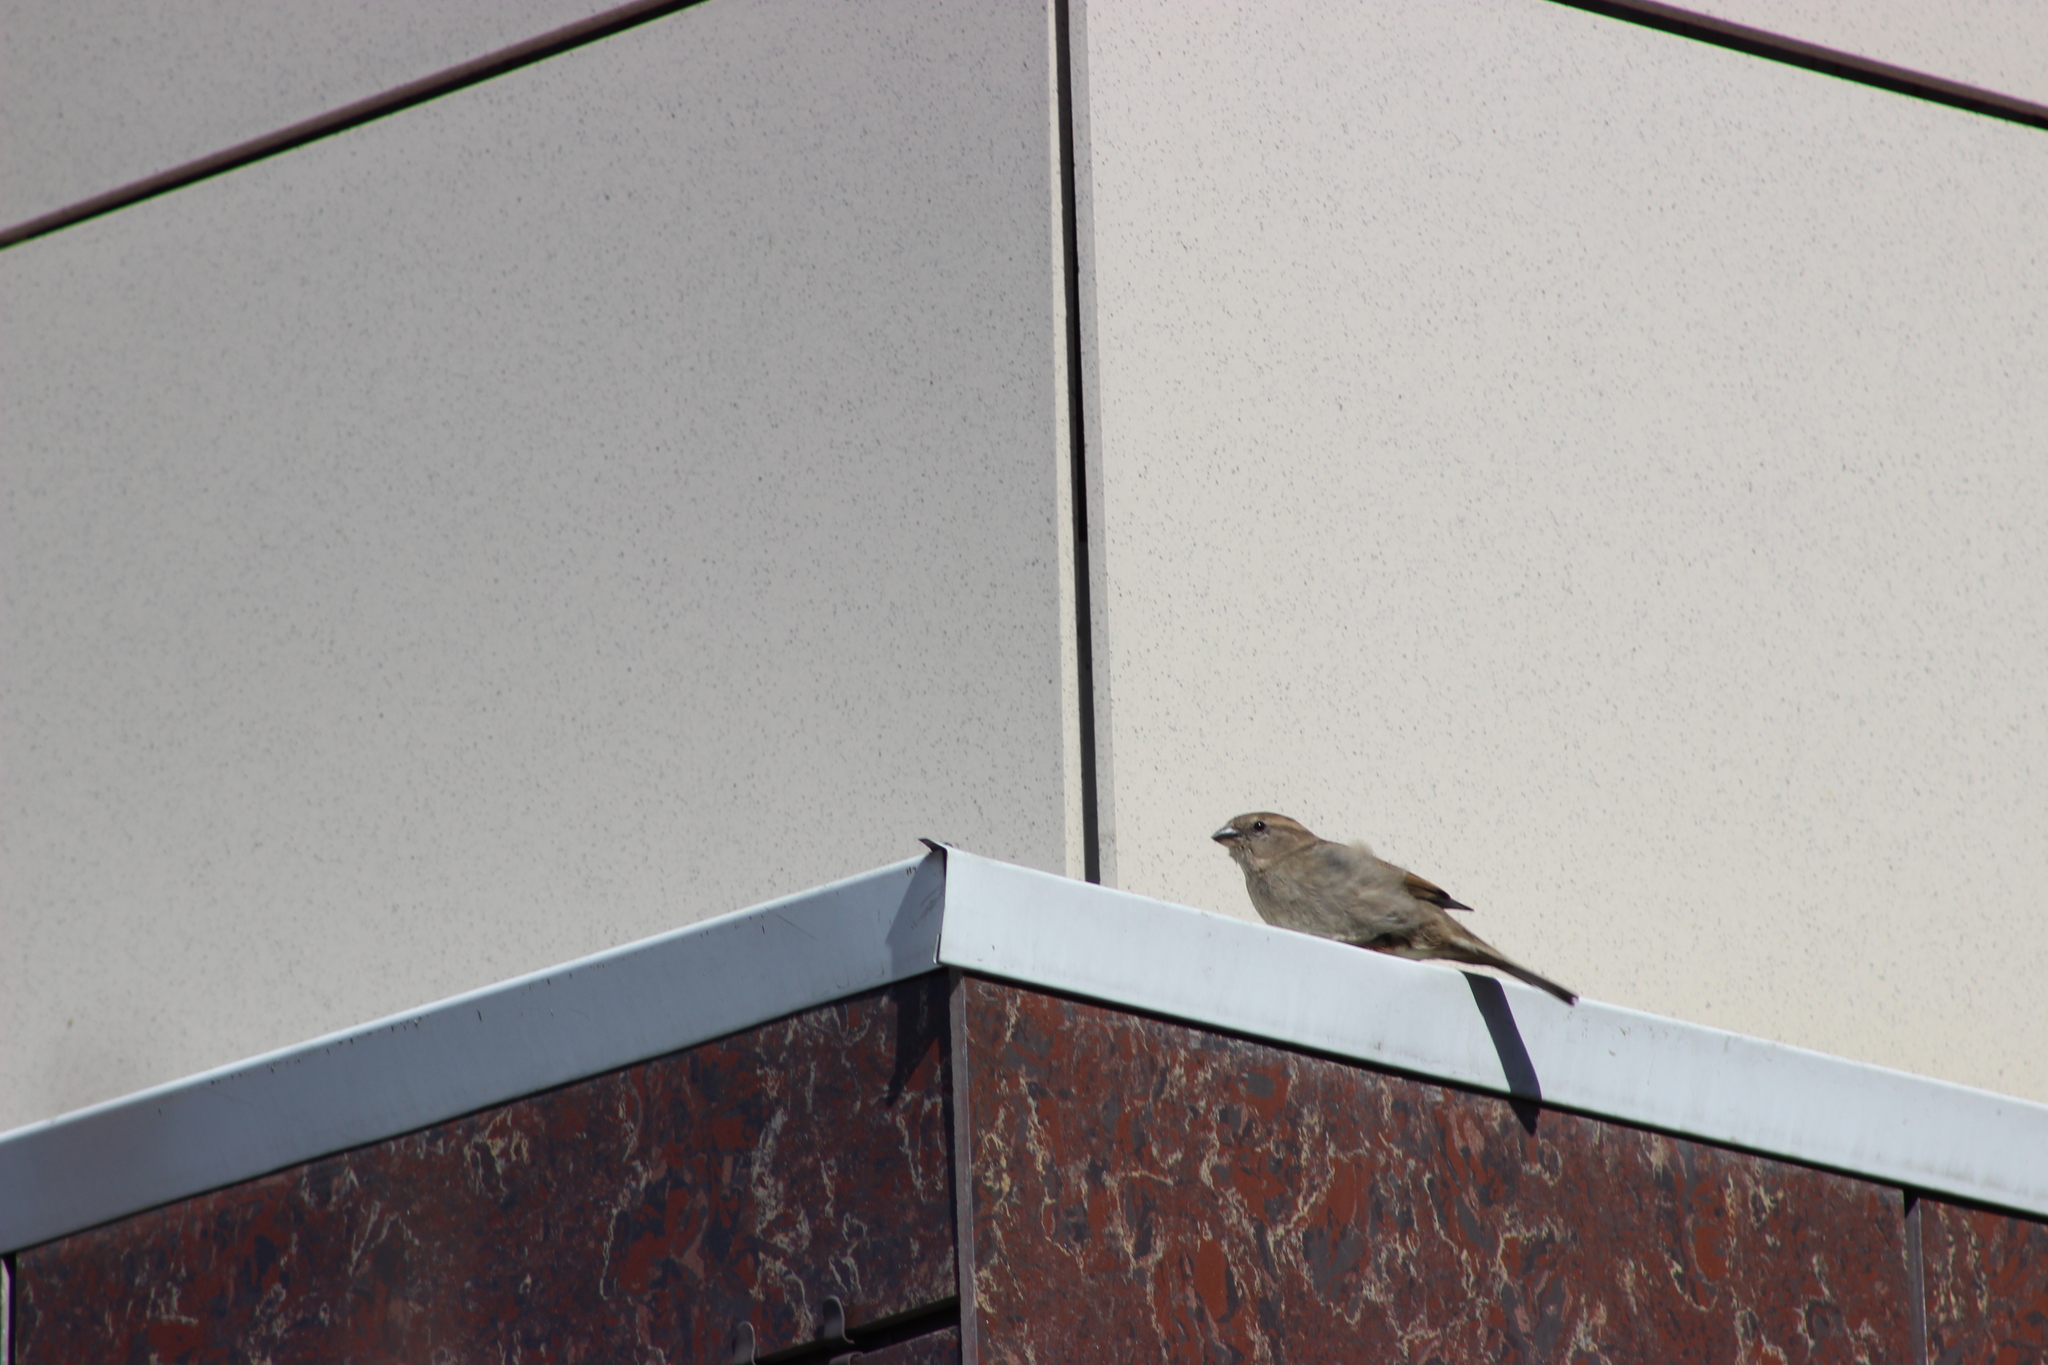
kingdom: Animalia
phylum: Chordata
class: Aves
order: Passeriformes
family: Passeridae
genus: Passer
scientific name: Passer domesticus
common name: House sparrow
